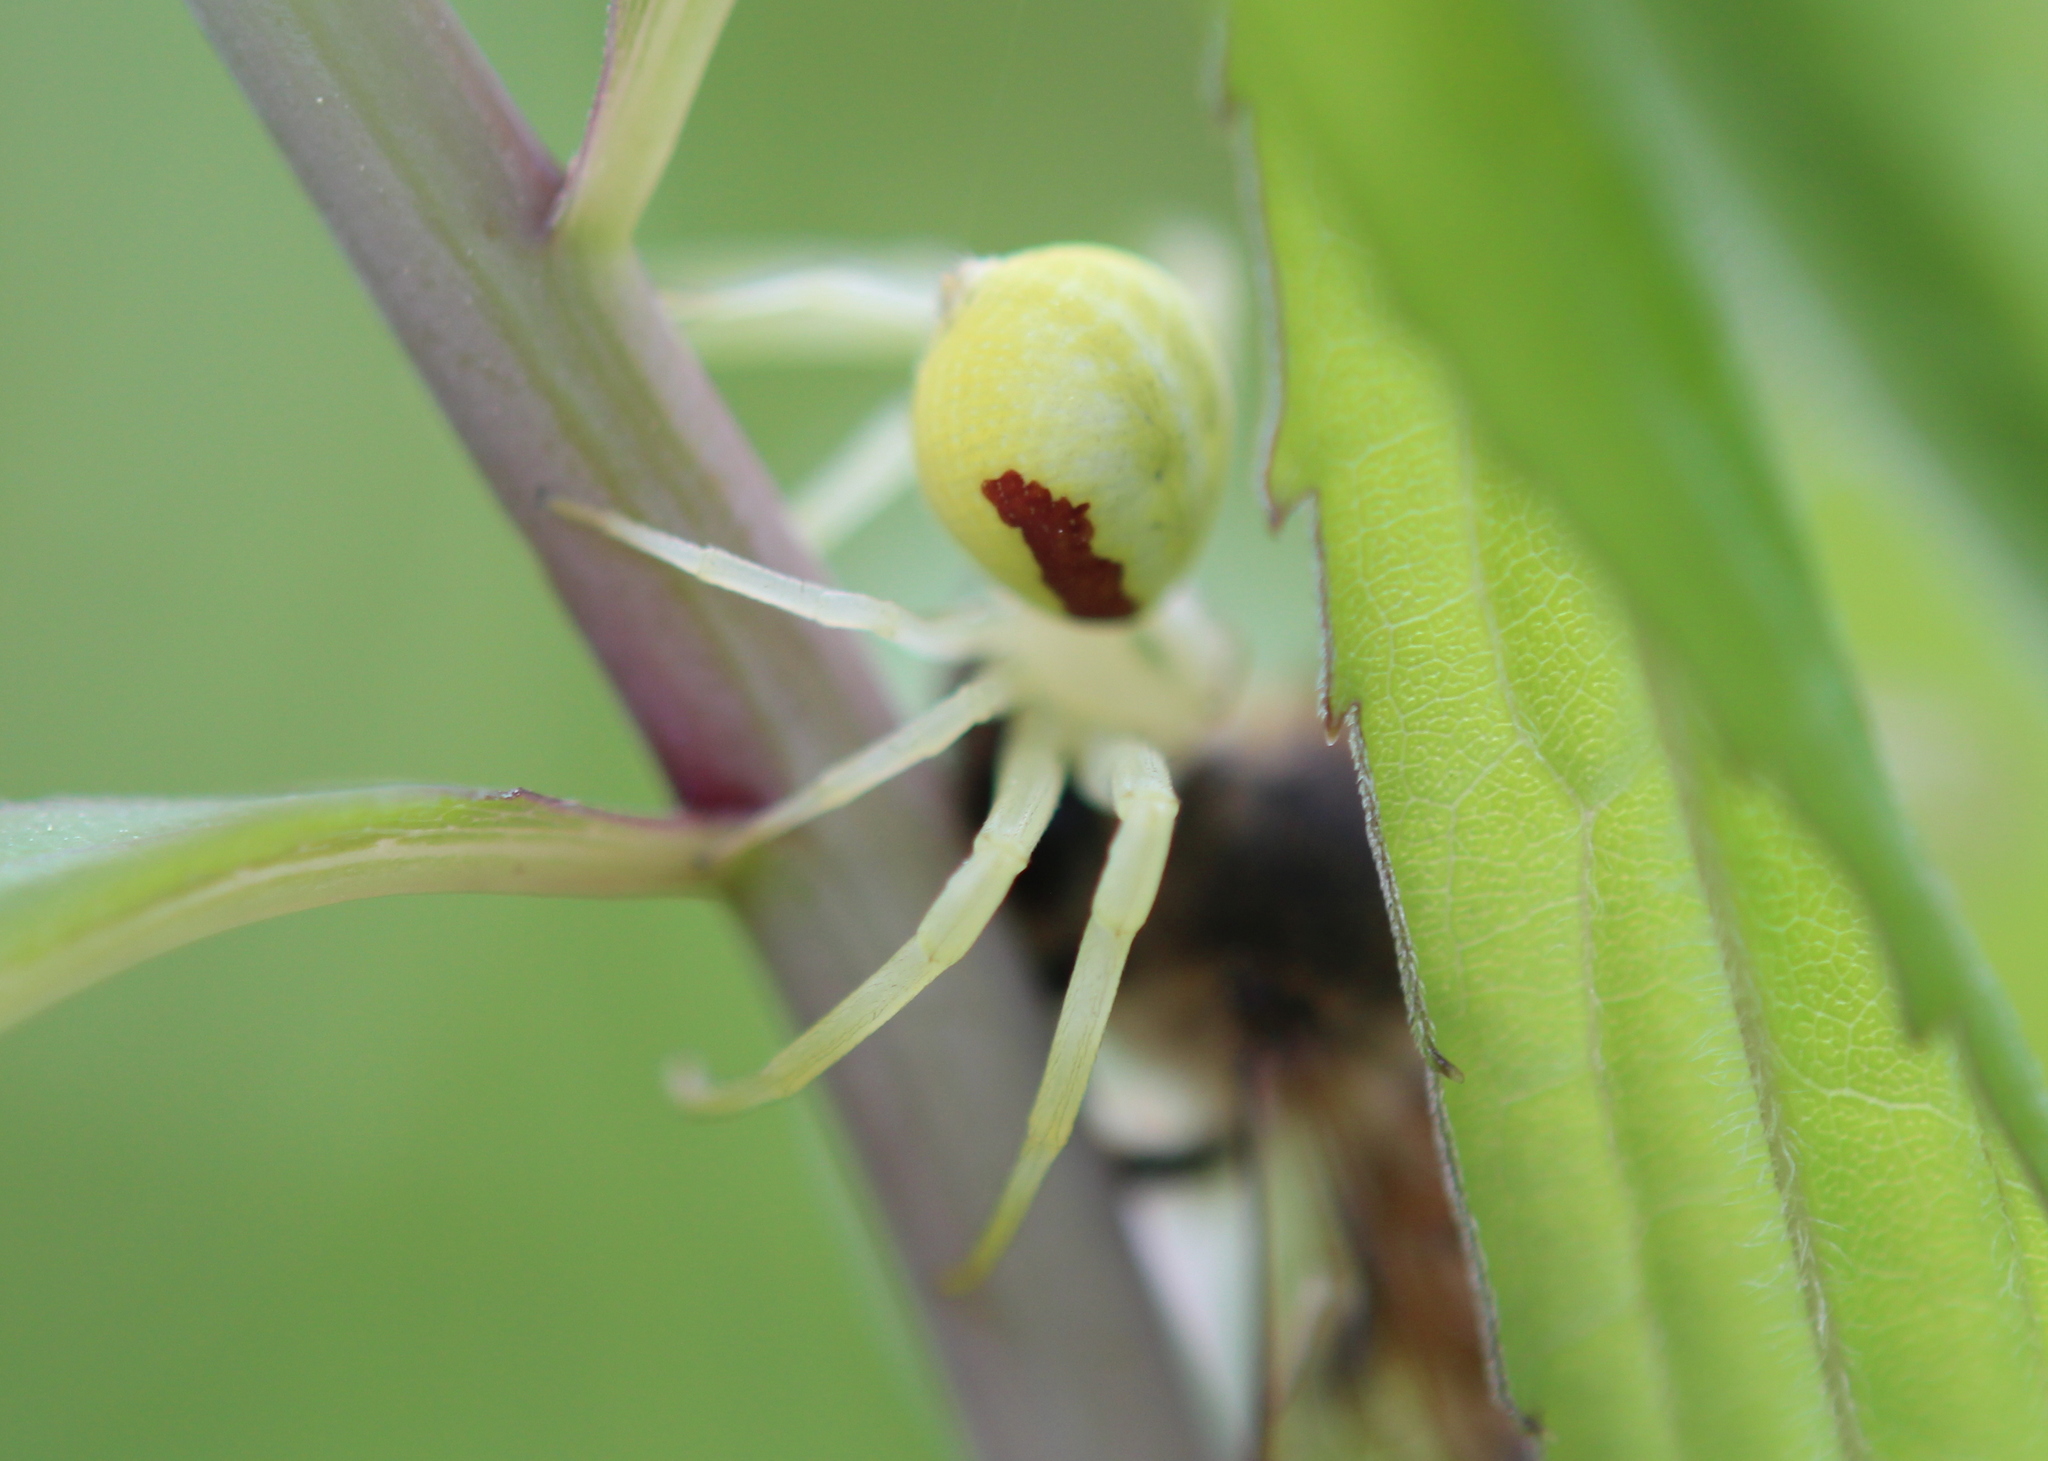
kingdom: Animalia
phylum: Arthropoda
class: Arachnida
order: Araneae
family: Thomisidae
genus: Misumena
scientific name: Misumena vatia
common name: Goldenrod crab spider
